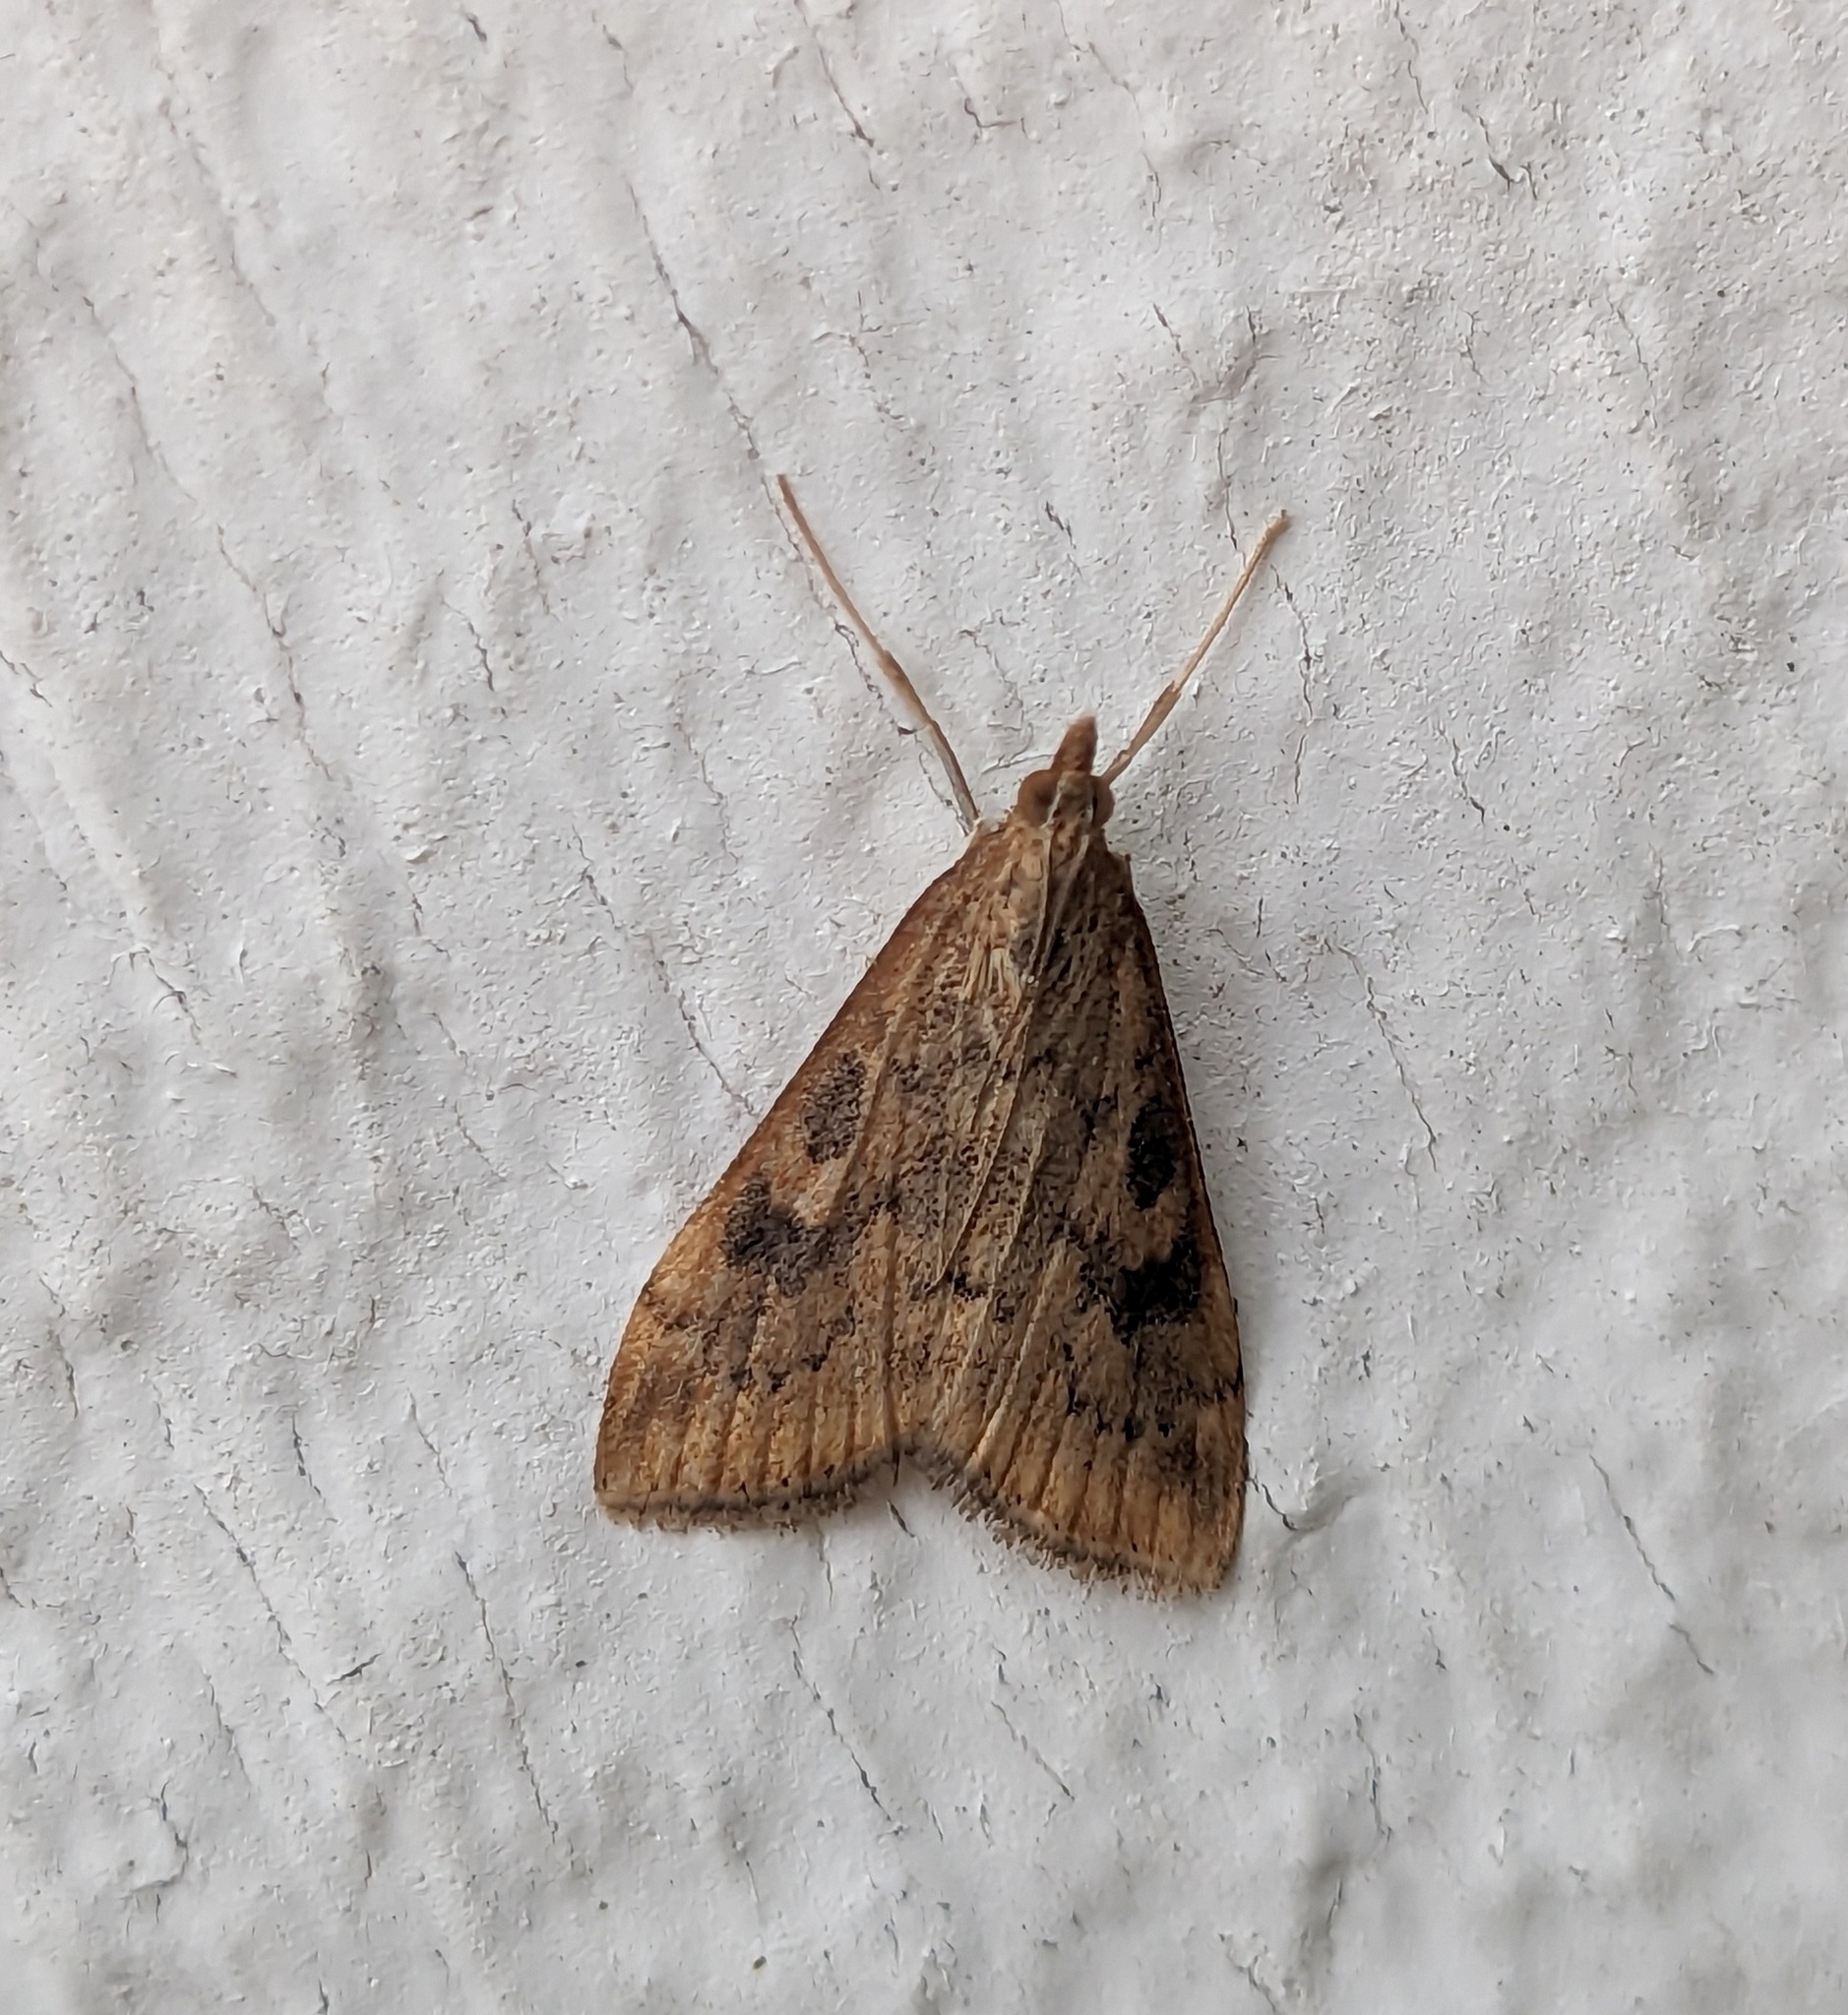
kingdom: Animalia
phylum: Arthropoda
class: Insecta
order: Lepidoptera
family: Crambidae
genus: Udea
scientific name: Udea ferrugalis
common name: Rusty dot
